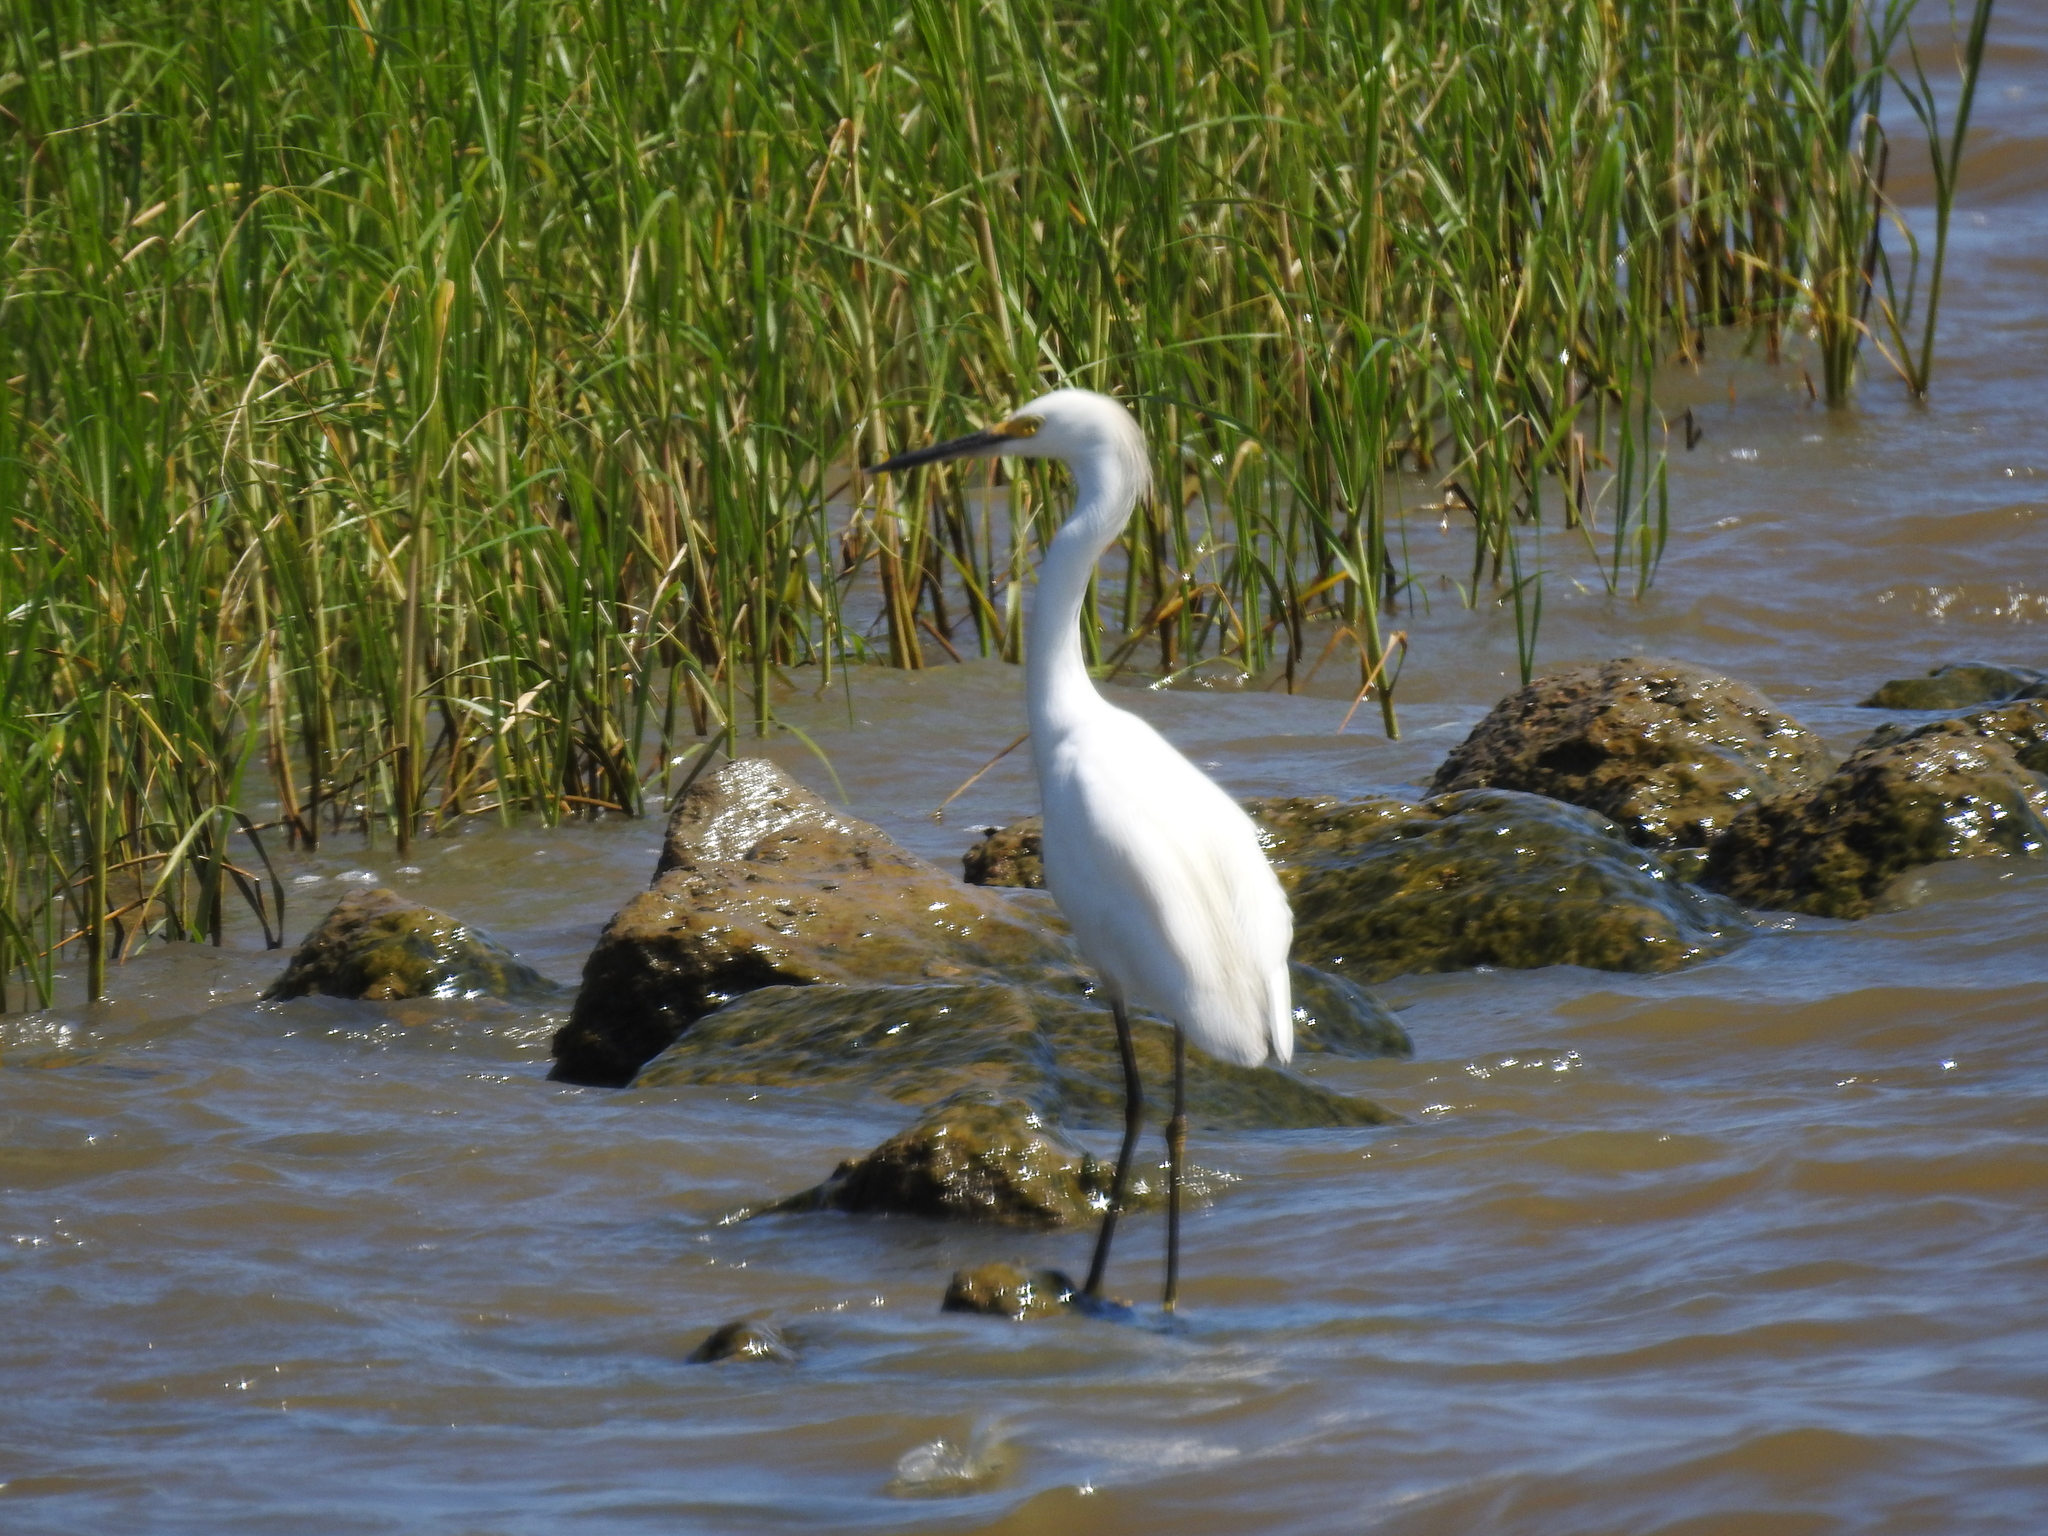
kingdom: Animalia
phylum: Chordata
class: Aves
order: Pelecaniformes
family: Ardeidae
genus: Egretta
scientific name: Egretta thula
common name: Snowy egret
